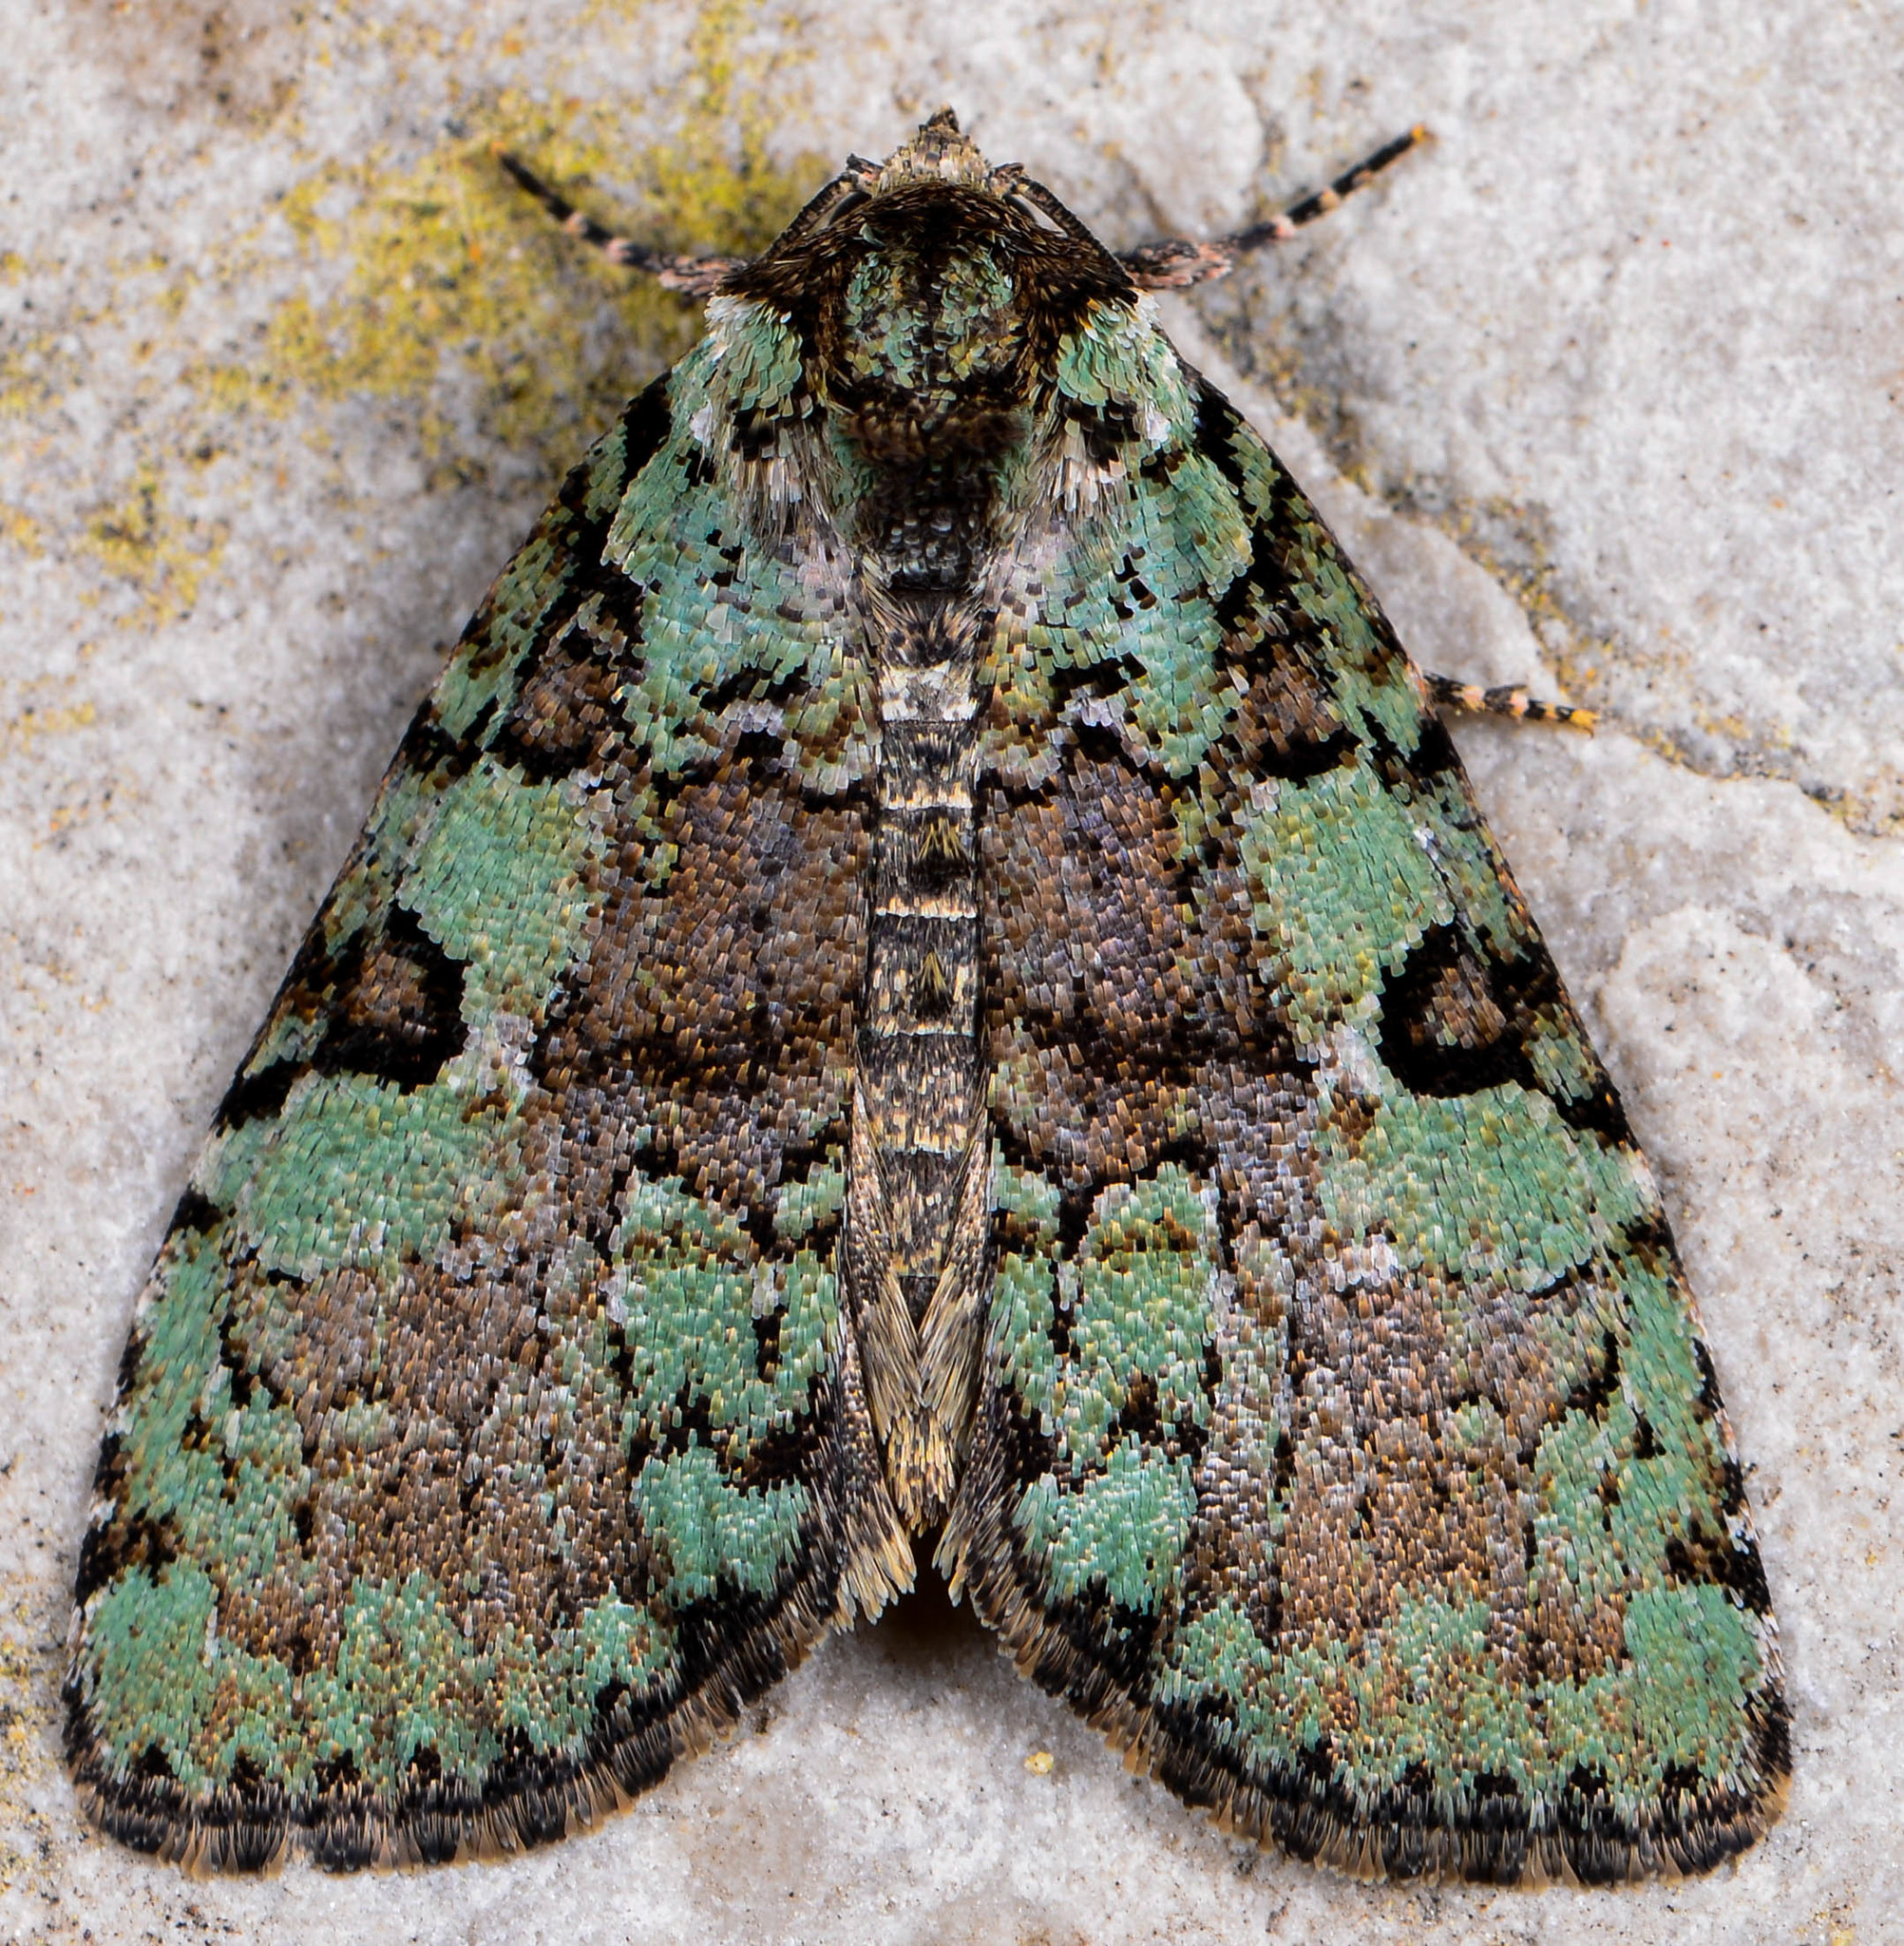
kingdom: Animalia
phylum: Arthropoda
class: Insecta
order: Lepidoptera
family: Noctuidae
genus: Leuconycta
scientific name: Leuconycta lepidula
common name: Marbled-green leuconycta moth
